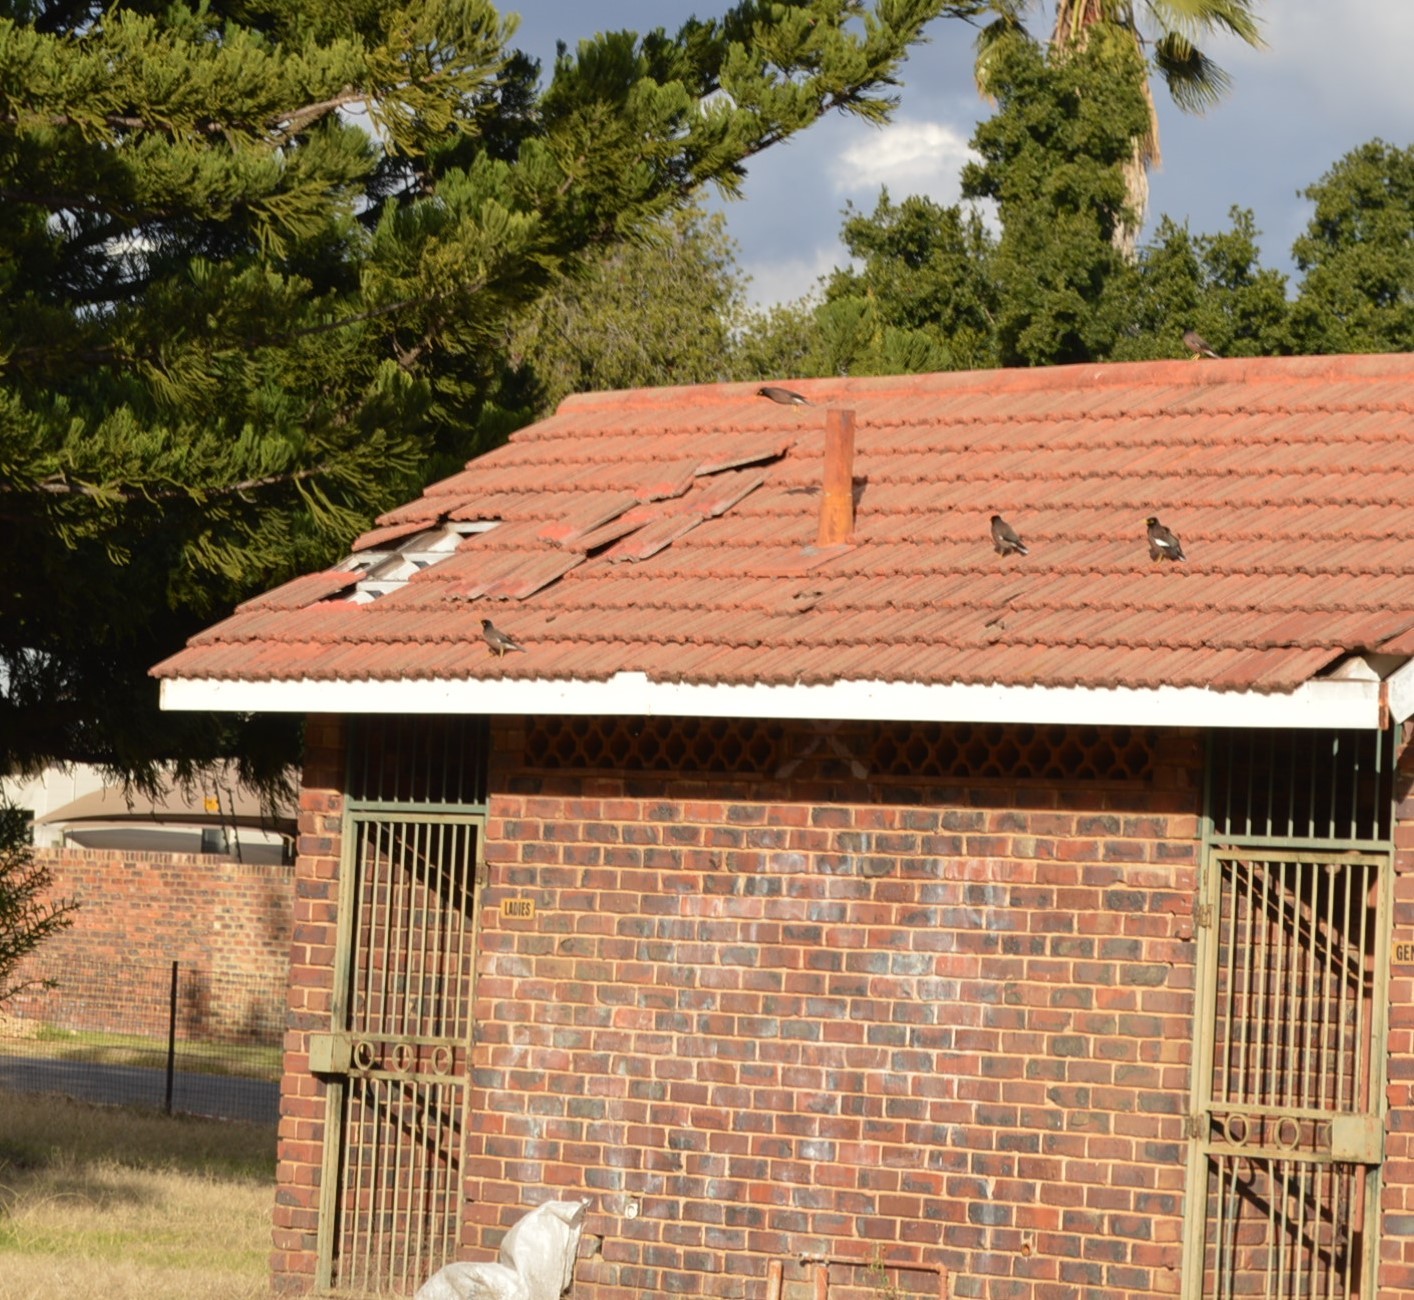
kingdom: Animalia
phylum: Chordata
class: Aves
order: Passeriformes
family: Sturnidae
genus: Acridotheres
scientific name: Acridotheres tristis
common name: Common myna
